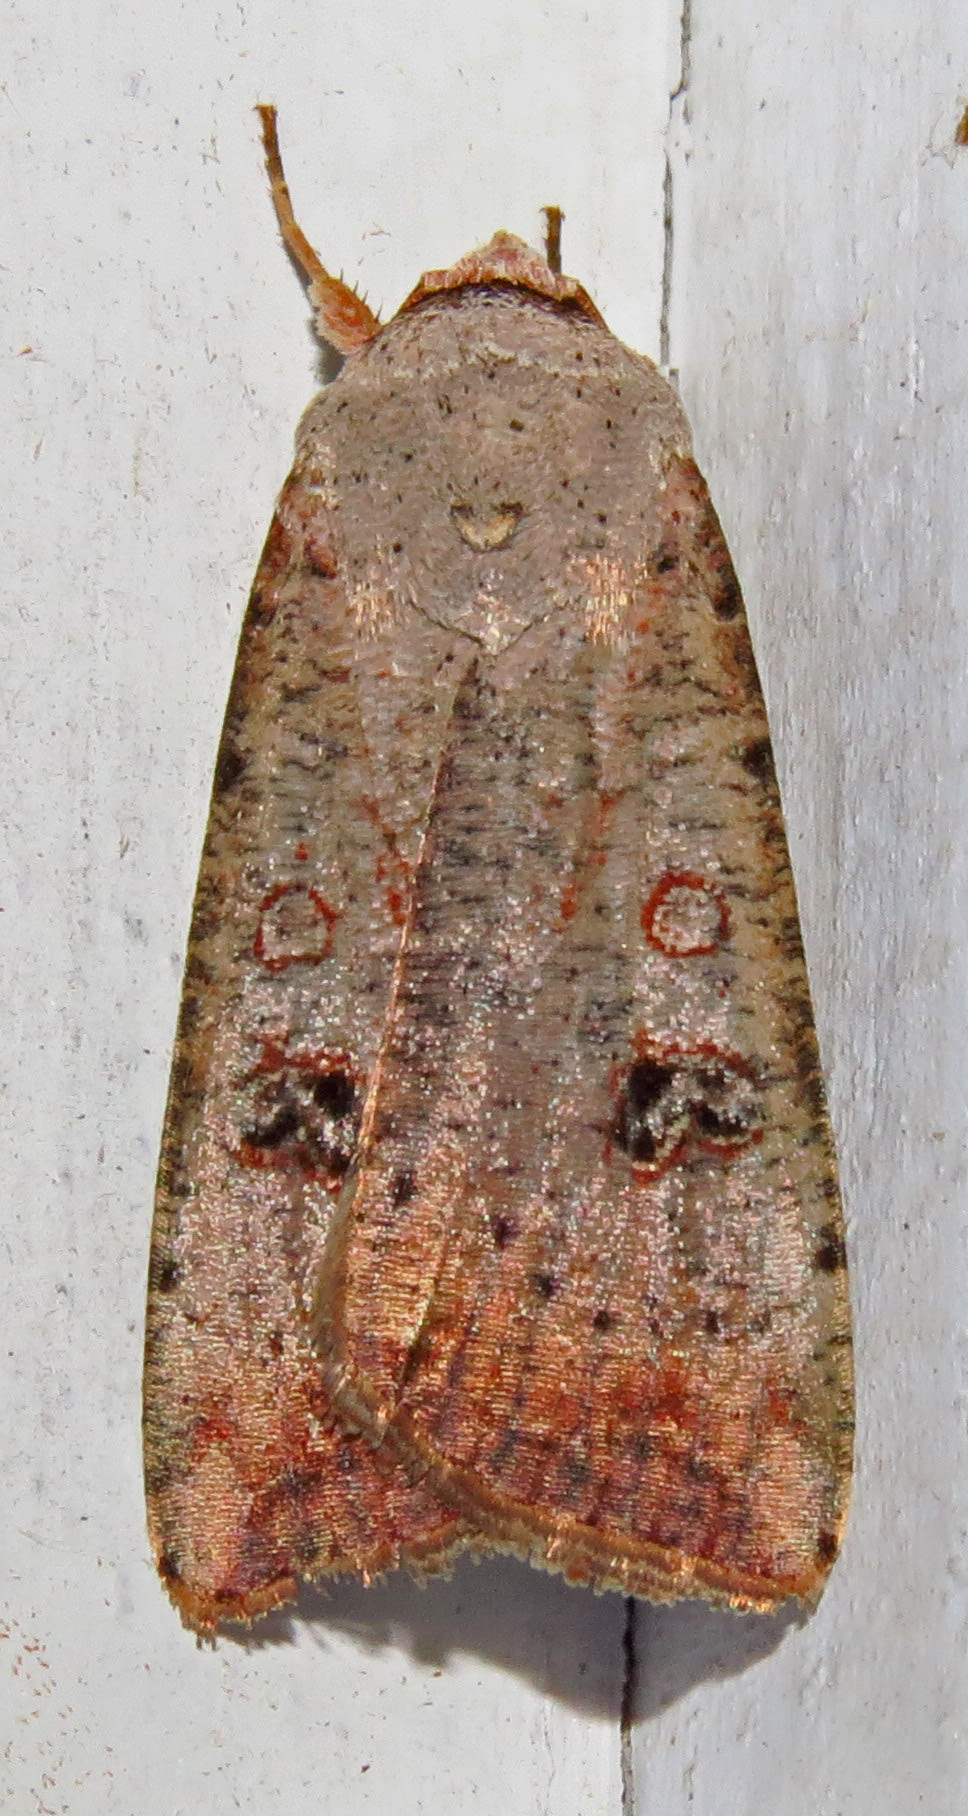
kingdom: Animalia
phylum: Arthropoda
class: Insecta
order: Lepidoptera
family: Noctuidae
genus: Anicla
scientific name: Anicla infecta
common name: Green cutworm
